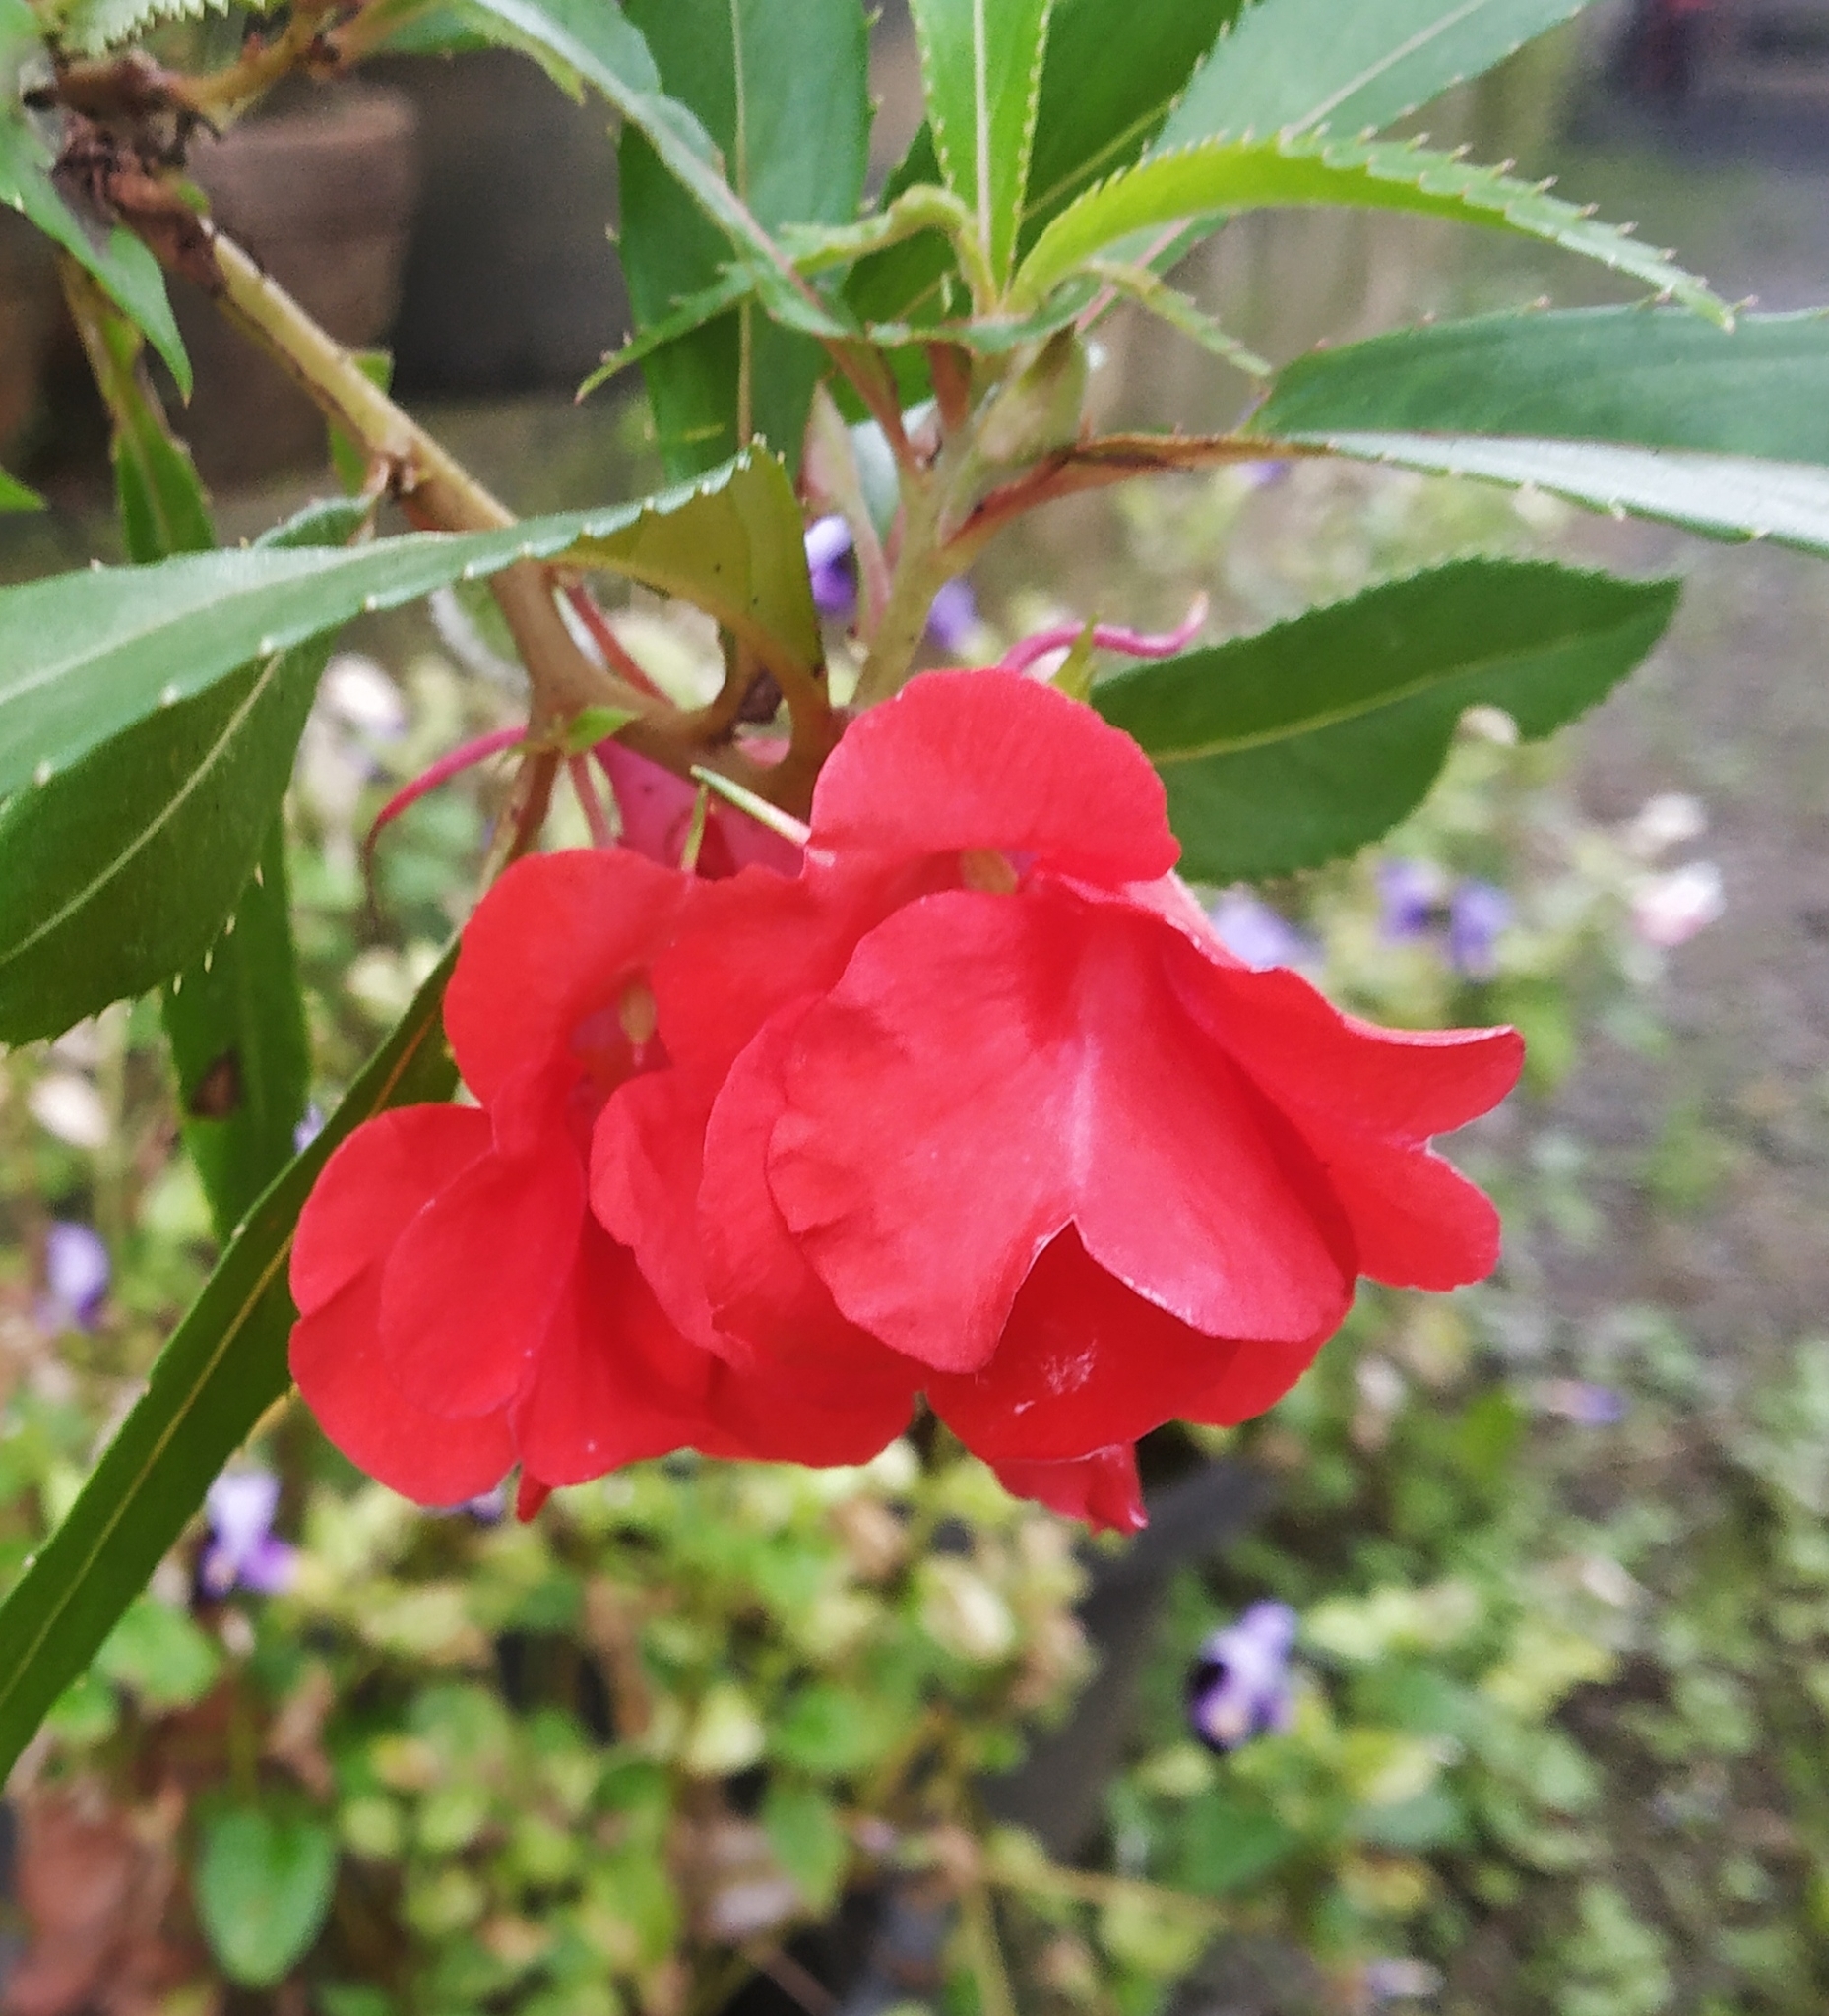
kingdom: Plantae
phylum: Tracheophyta
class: Magnoliopsida
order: Ericales
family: Balsaminaceae
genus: Impatiens
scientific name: Impatiens balsamina
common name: Balsam
